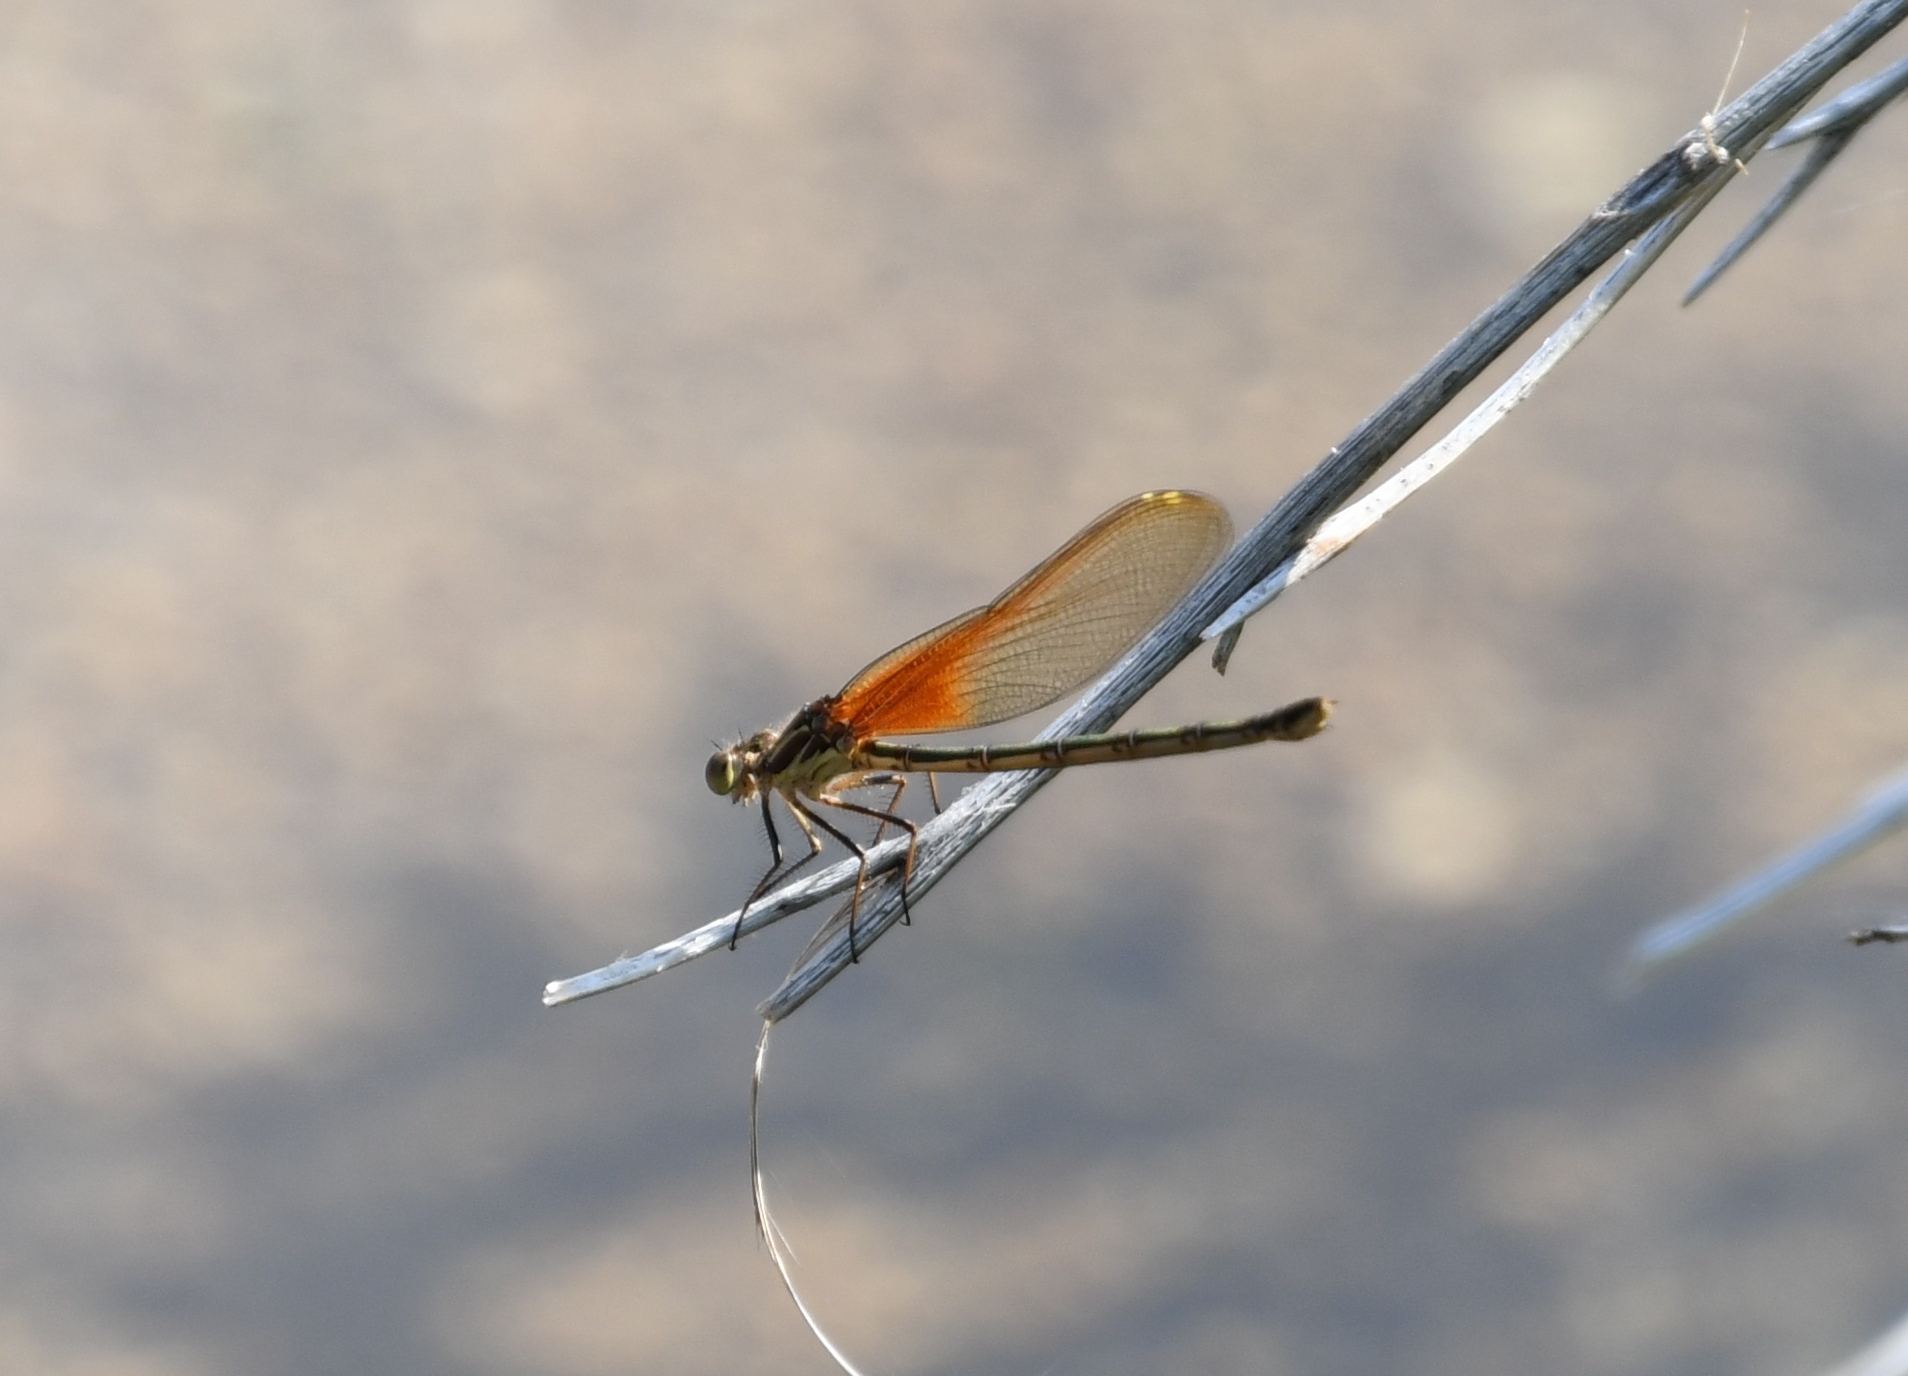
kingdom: Animalia
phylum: Arthropoda
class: Insecta
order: Odonata
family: Calopterygidae
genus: Hetaerina
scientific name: Hetaerina americana
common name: American rubyspot
